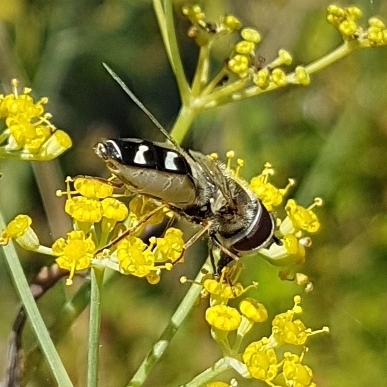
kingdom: Animalia
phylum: Arthropoda
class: Insecta
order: Diptera
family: Syrphidae
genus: Scaeva
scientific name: Scaeva pyrastri
